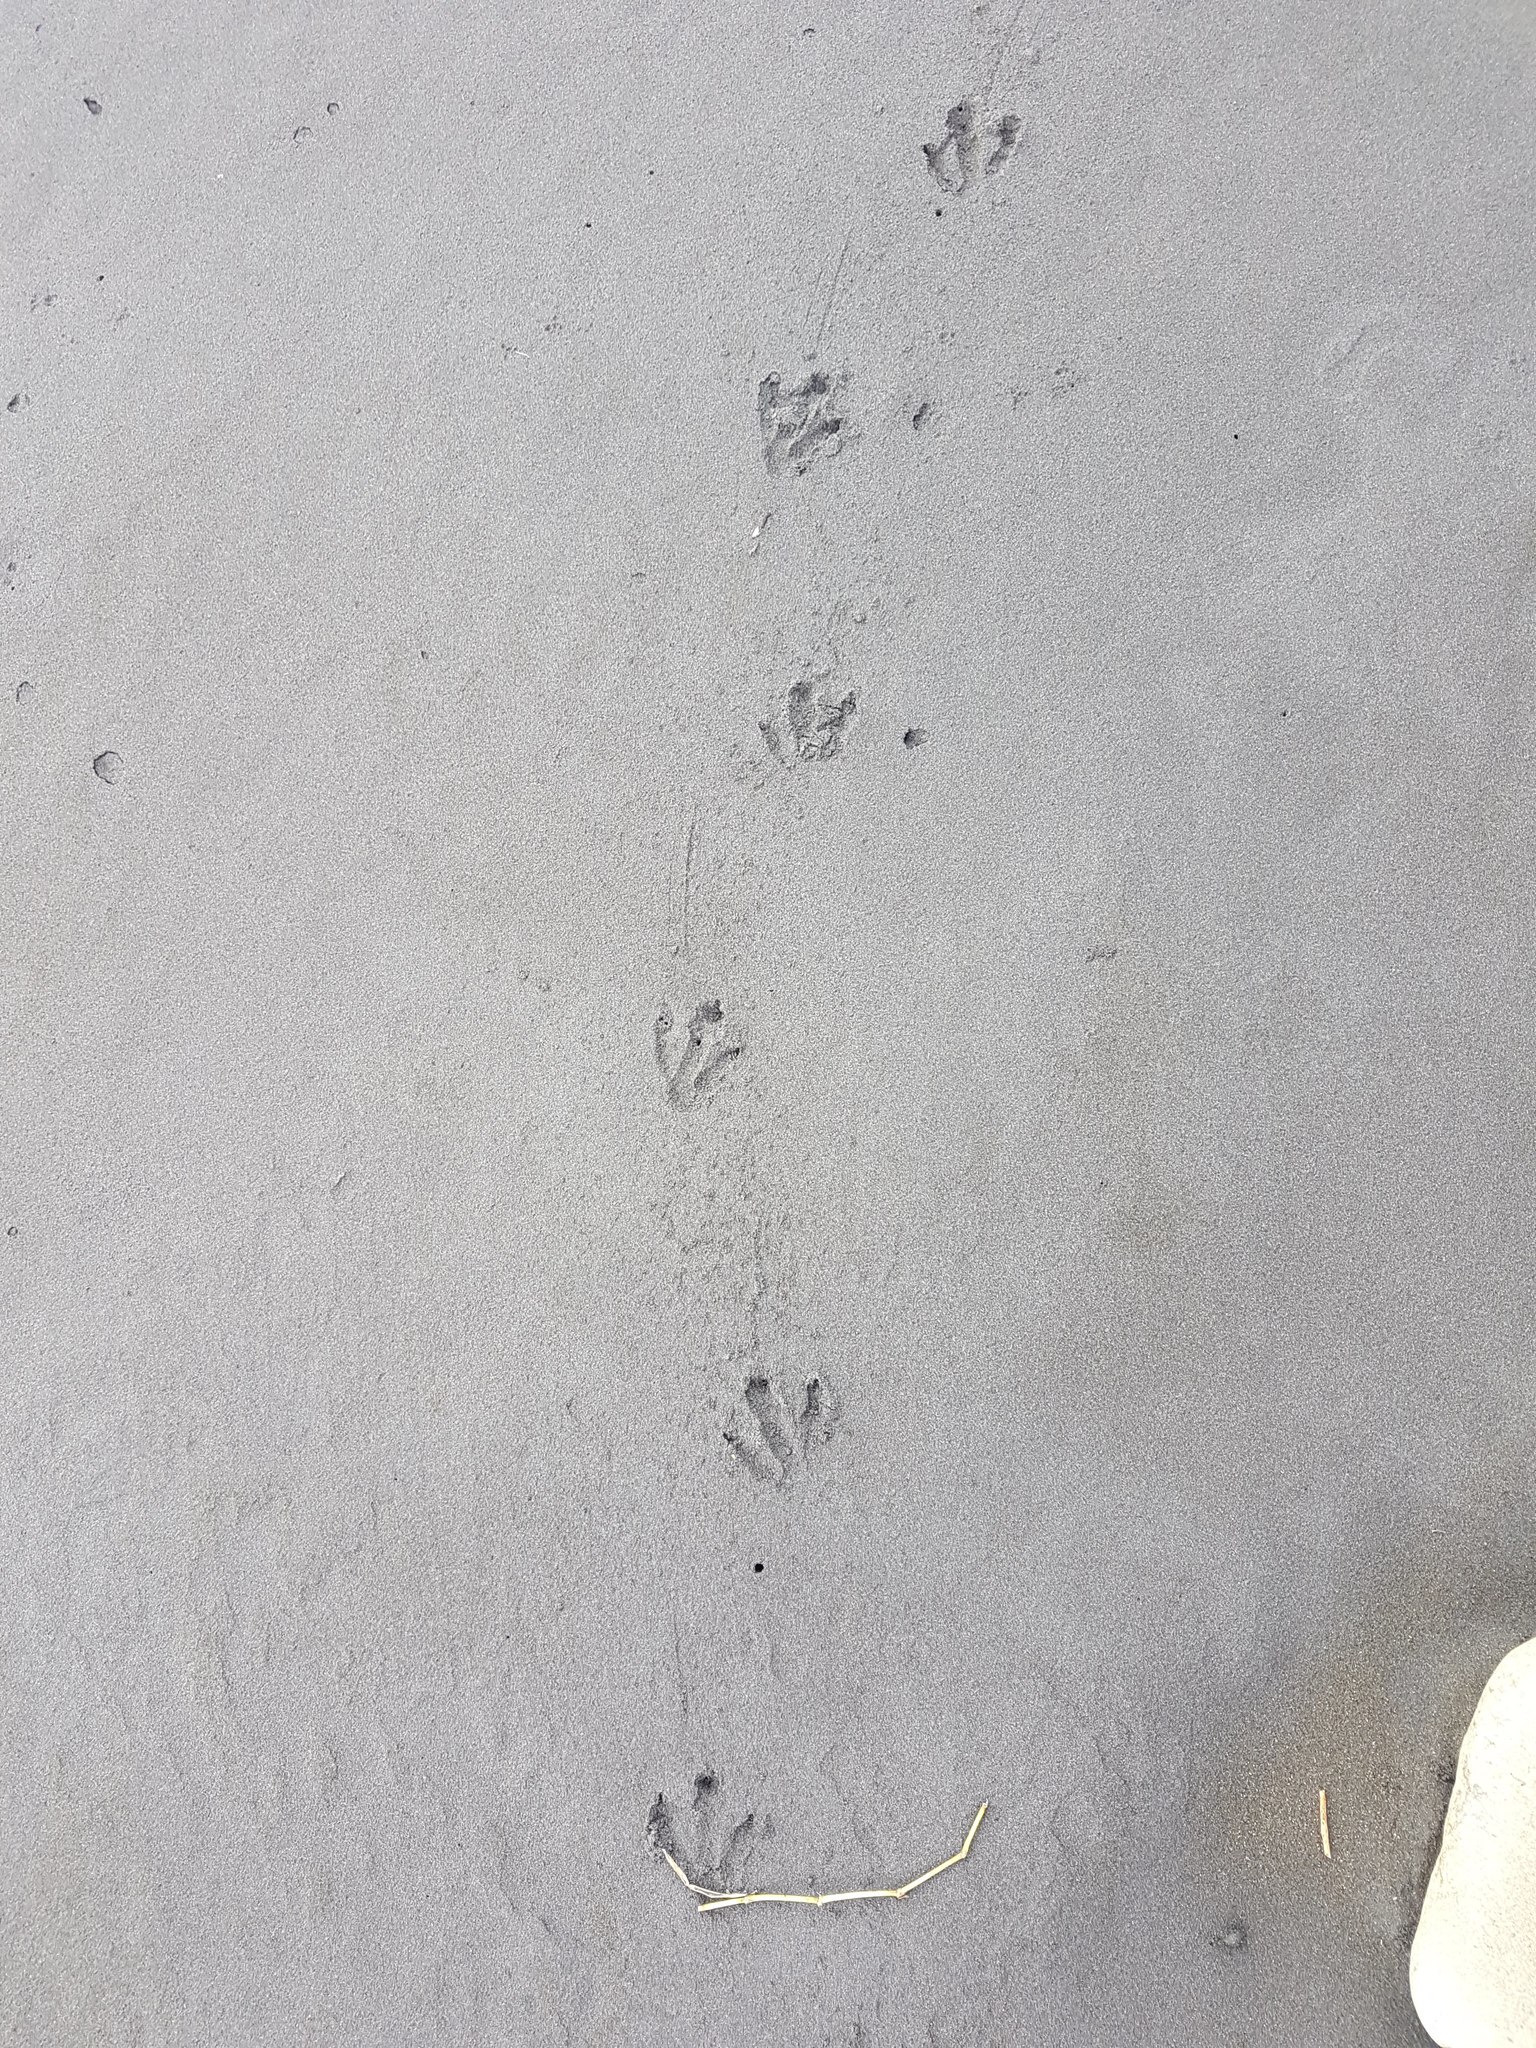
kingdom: Animalia
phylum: Chordata
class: Aves
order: Sphenisciformes
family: Spheniscidae
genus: Eudyptula
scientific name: Eudyptula minor
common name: Little penguin
